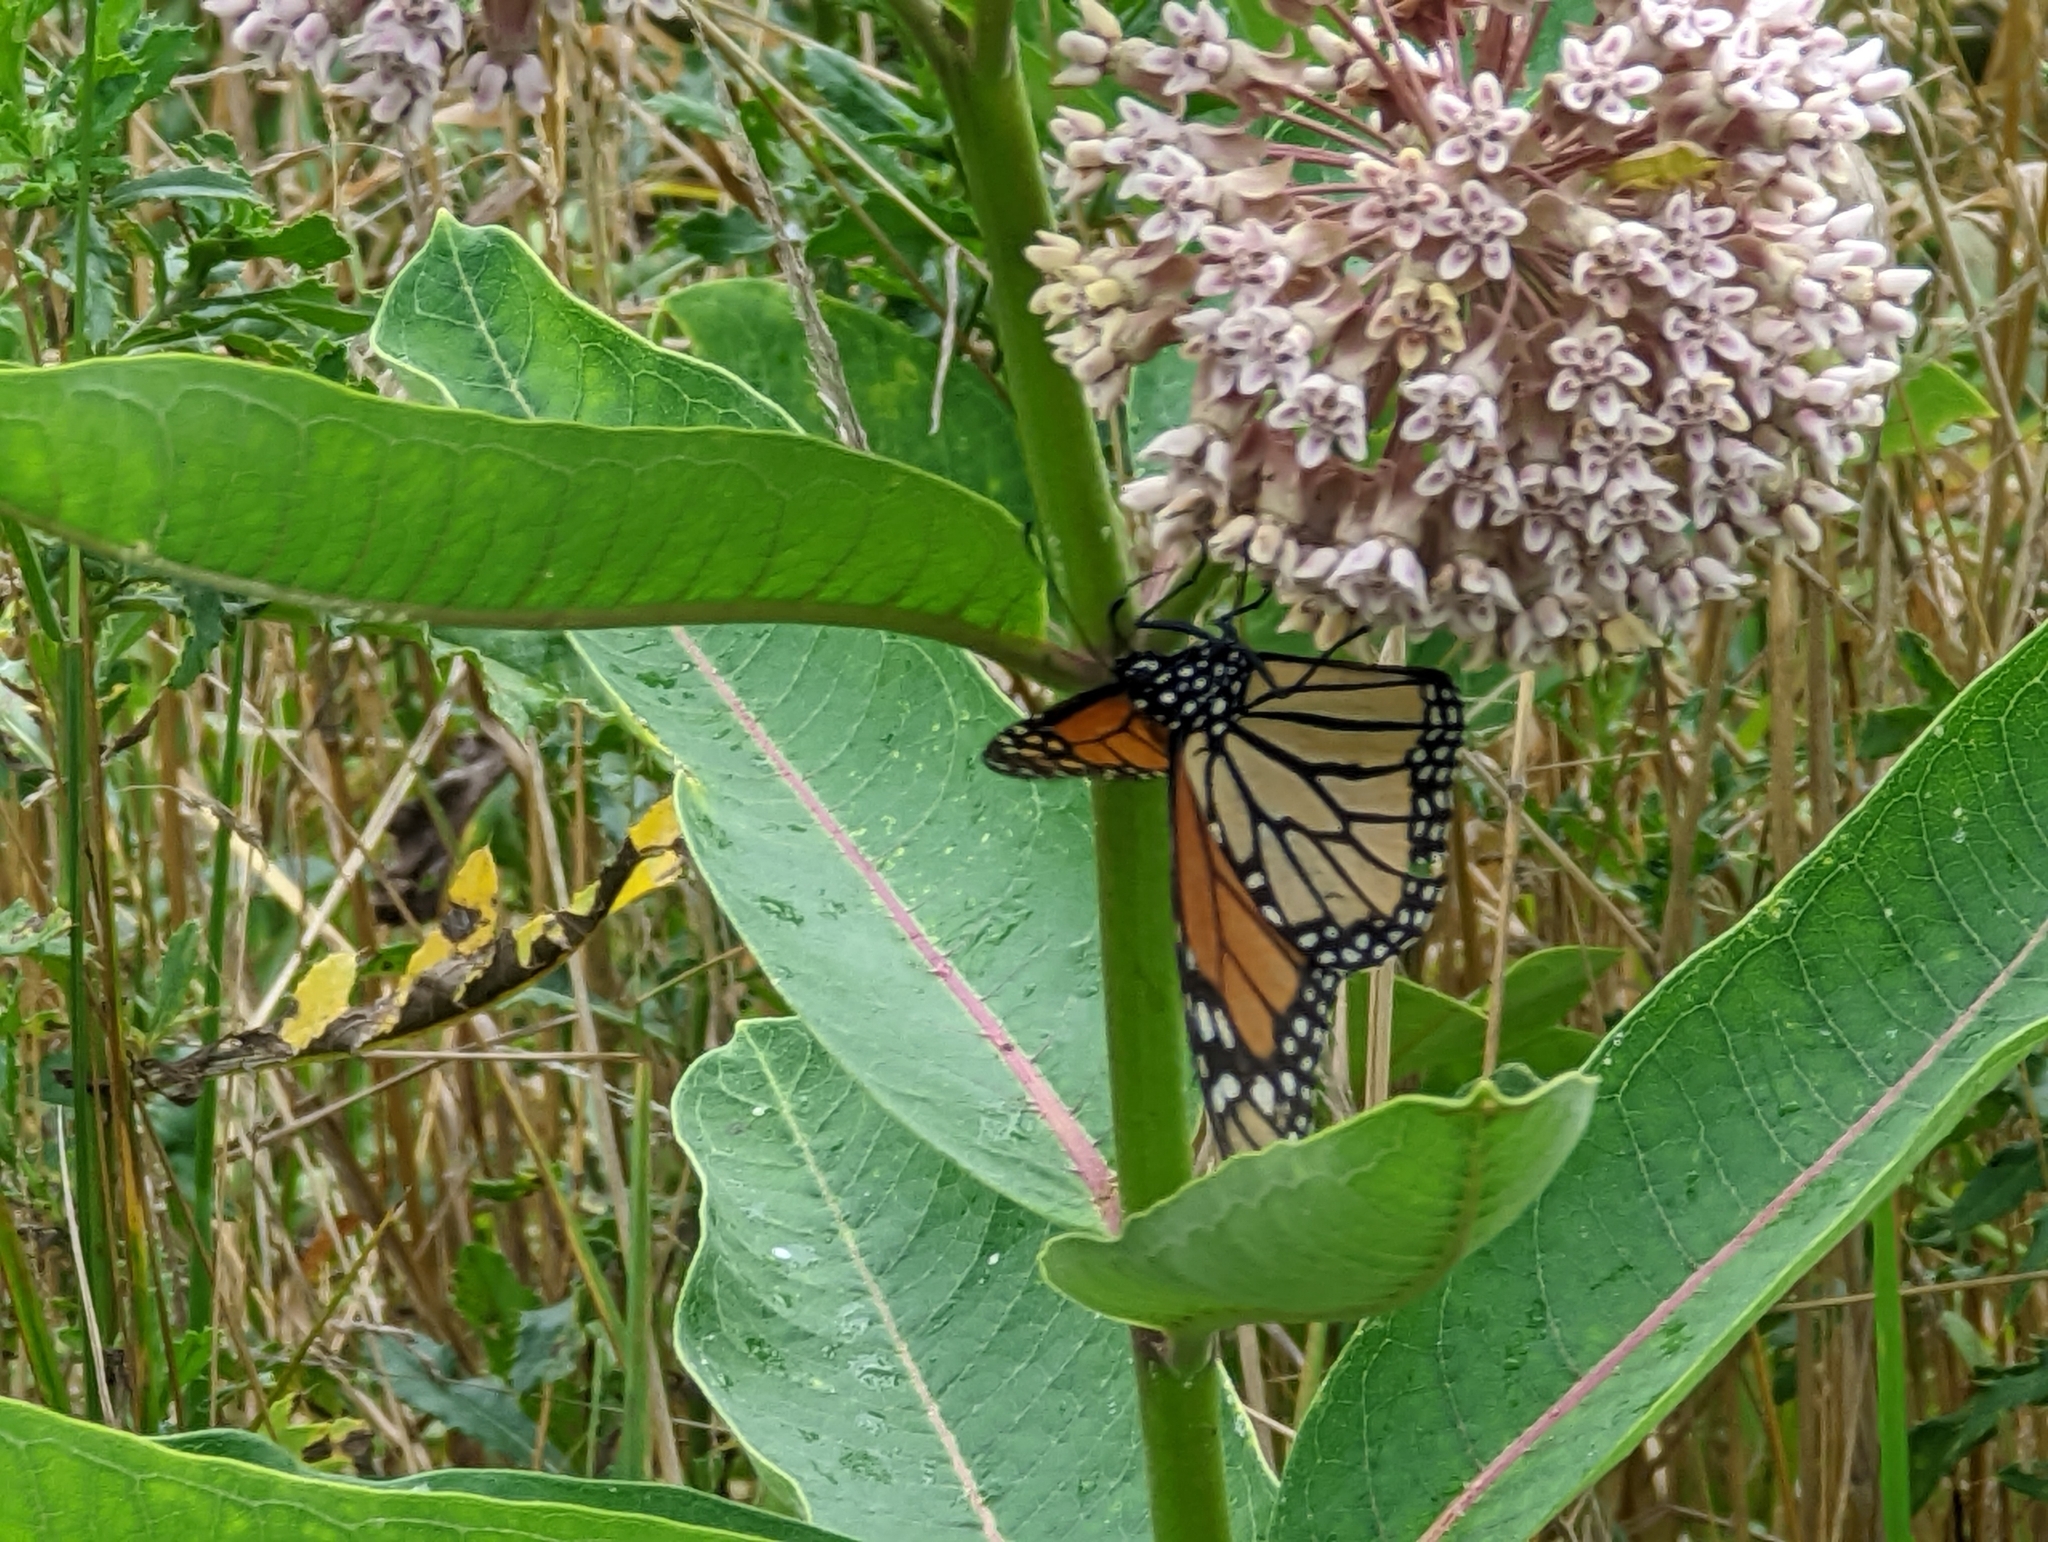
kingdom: Animalia
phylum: Arthropoda
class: Insecta
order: Lepidoptera
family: Nymphalidae
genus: Danaus
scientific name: Danaus plexippus
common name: Monarch
